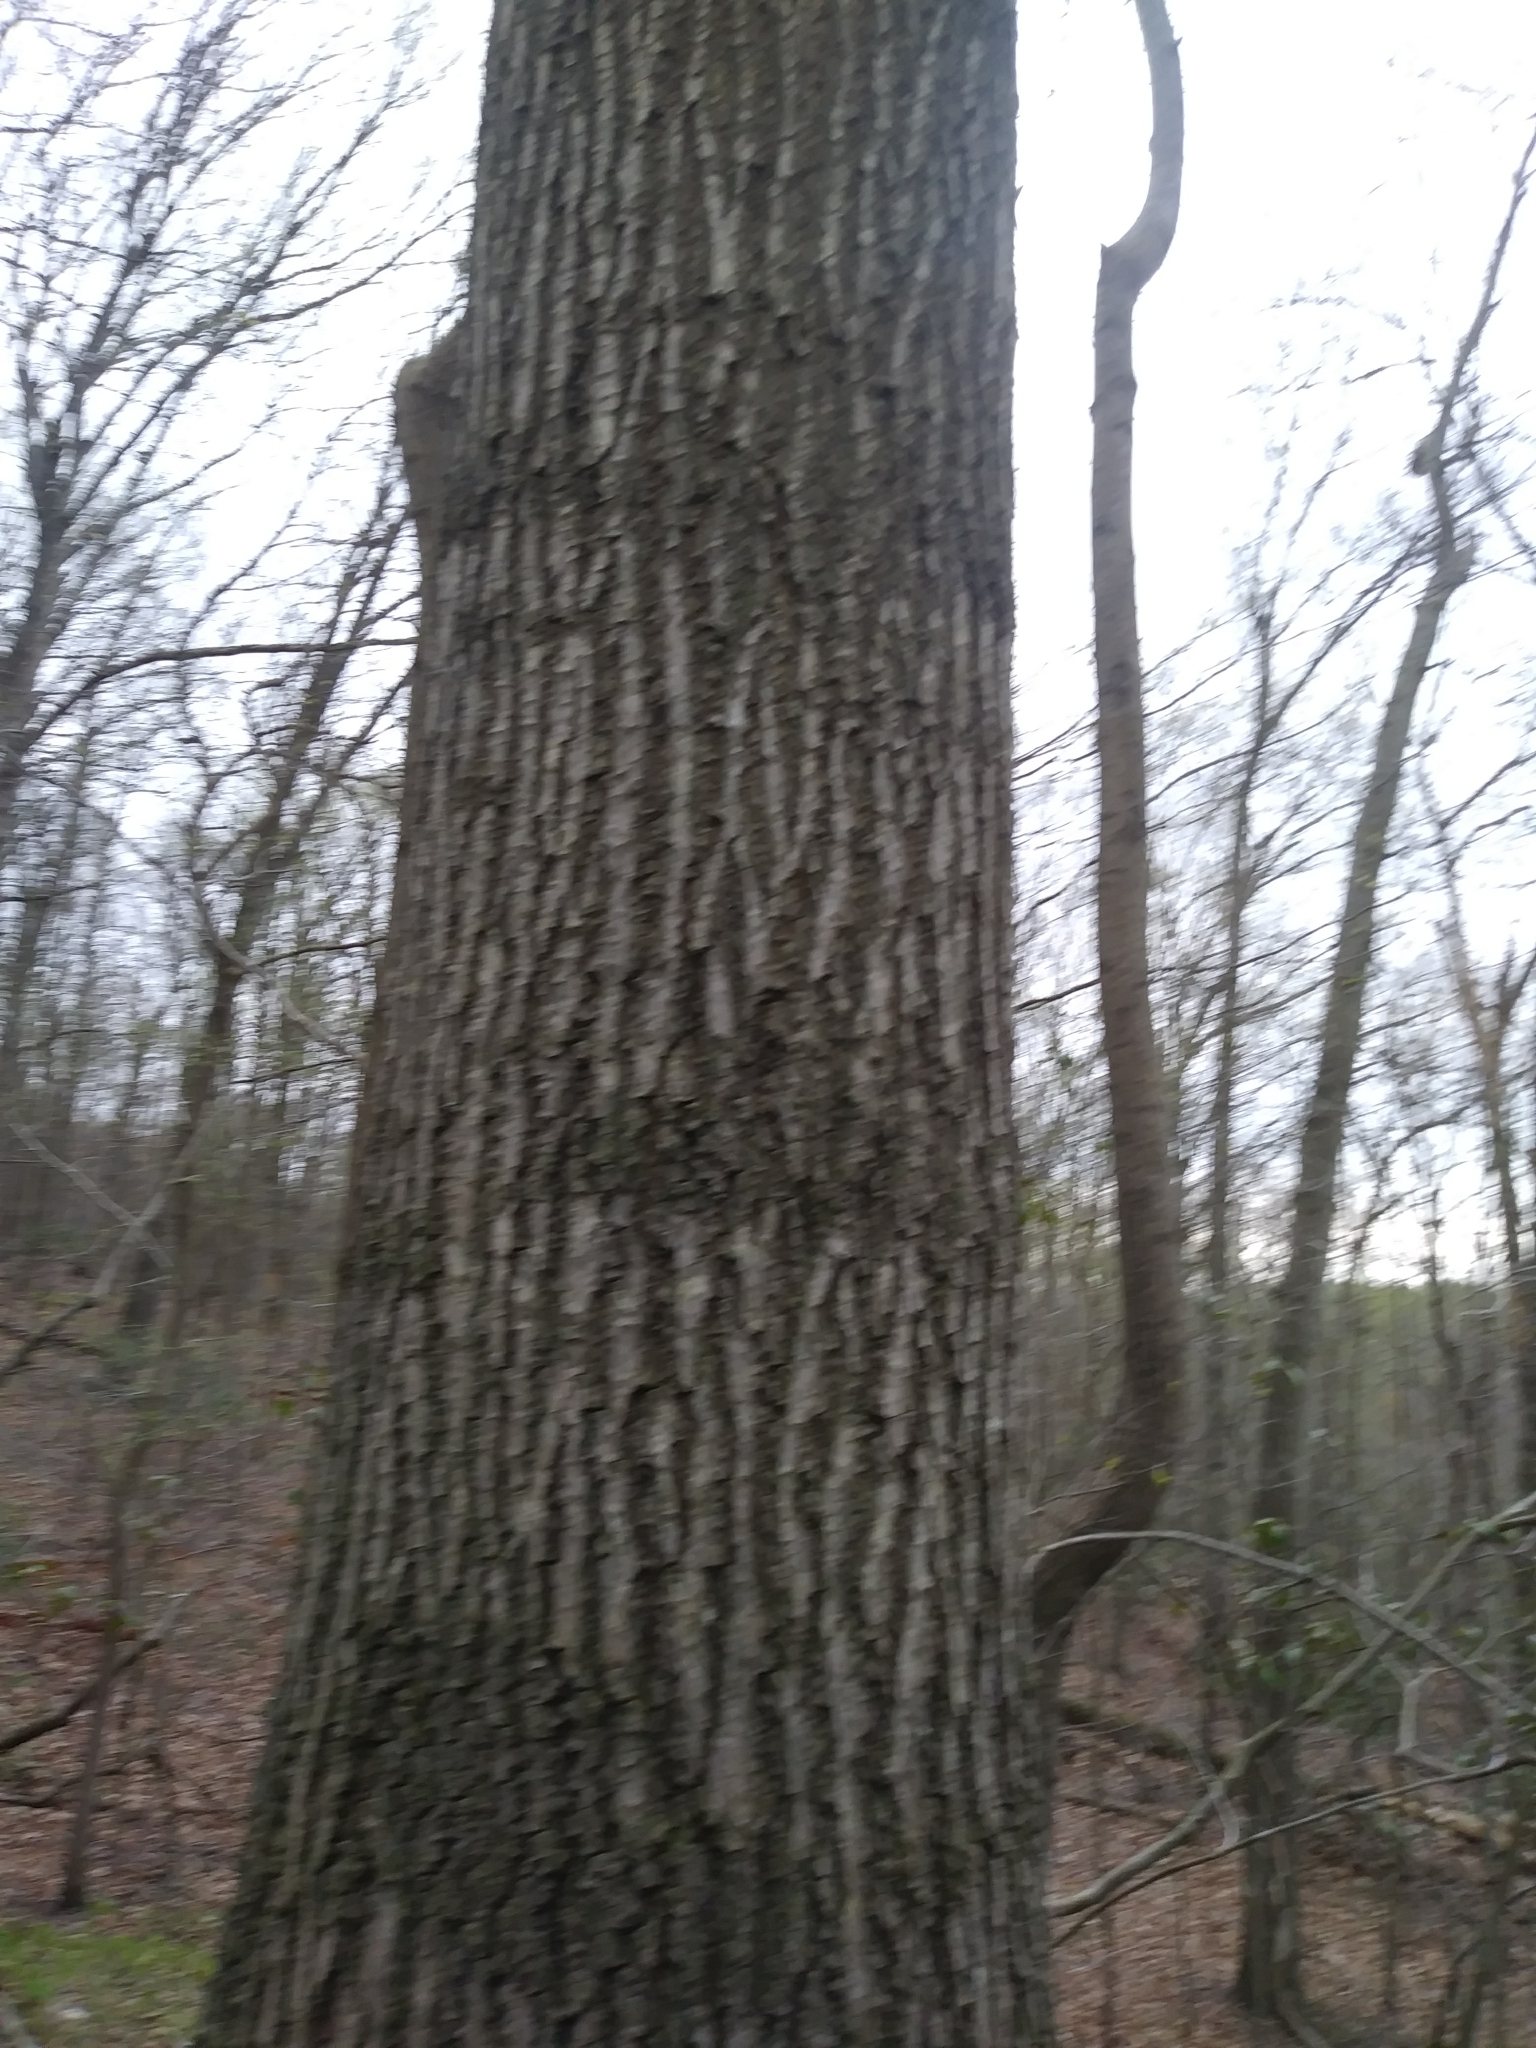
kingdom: Plantae
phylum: Tracheophyta
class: Magnoliopsida
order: Fagales
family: Fagaceae
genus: Quercus
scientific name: Quercus rubra
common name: Red oak
